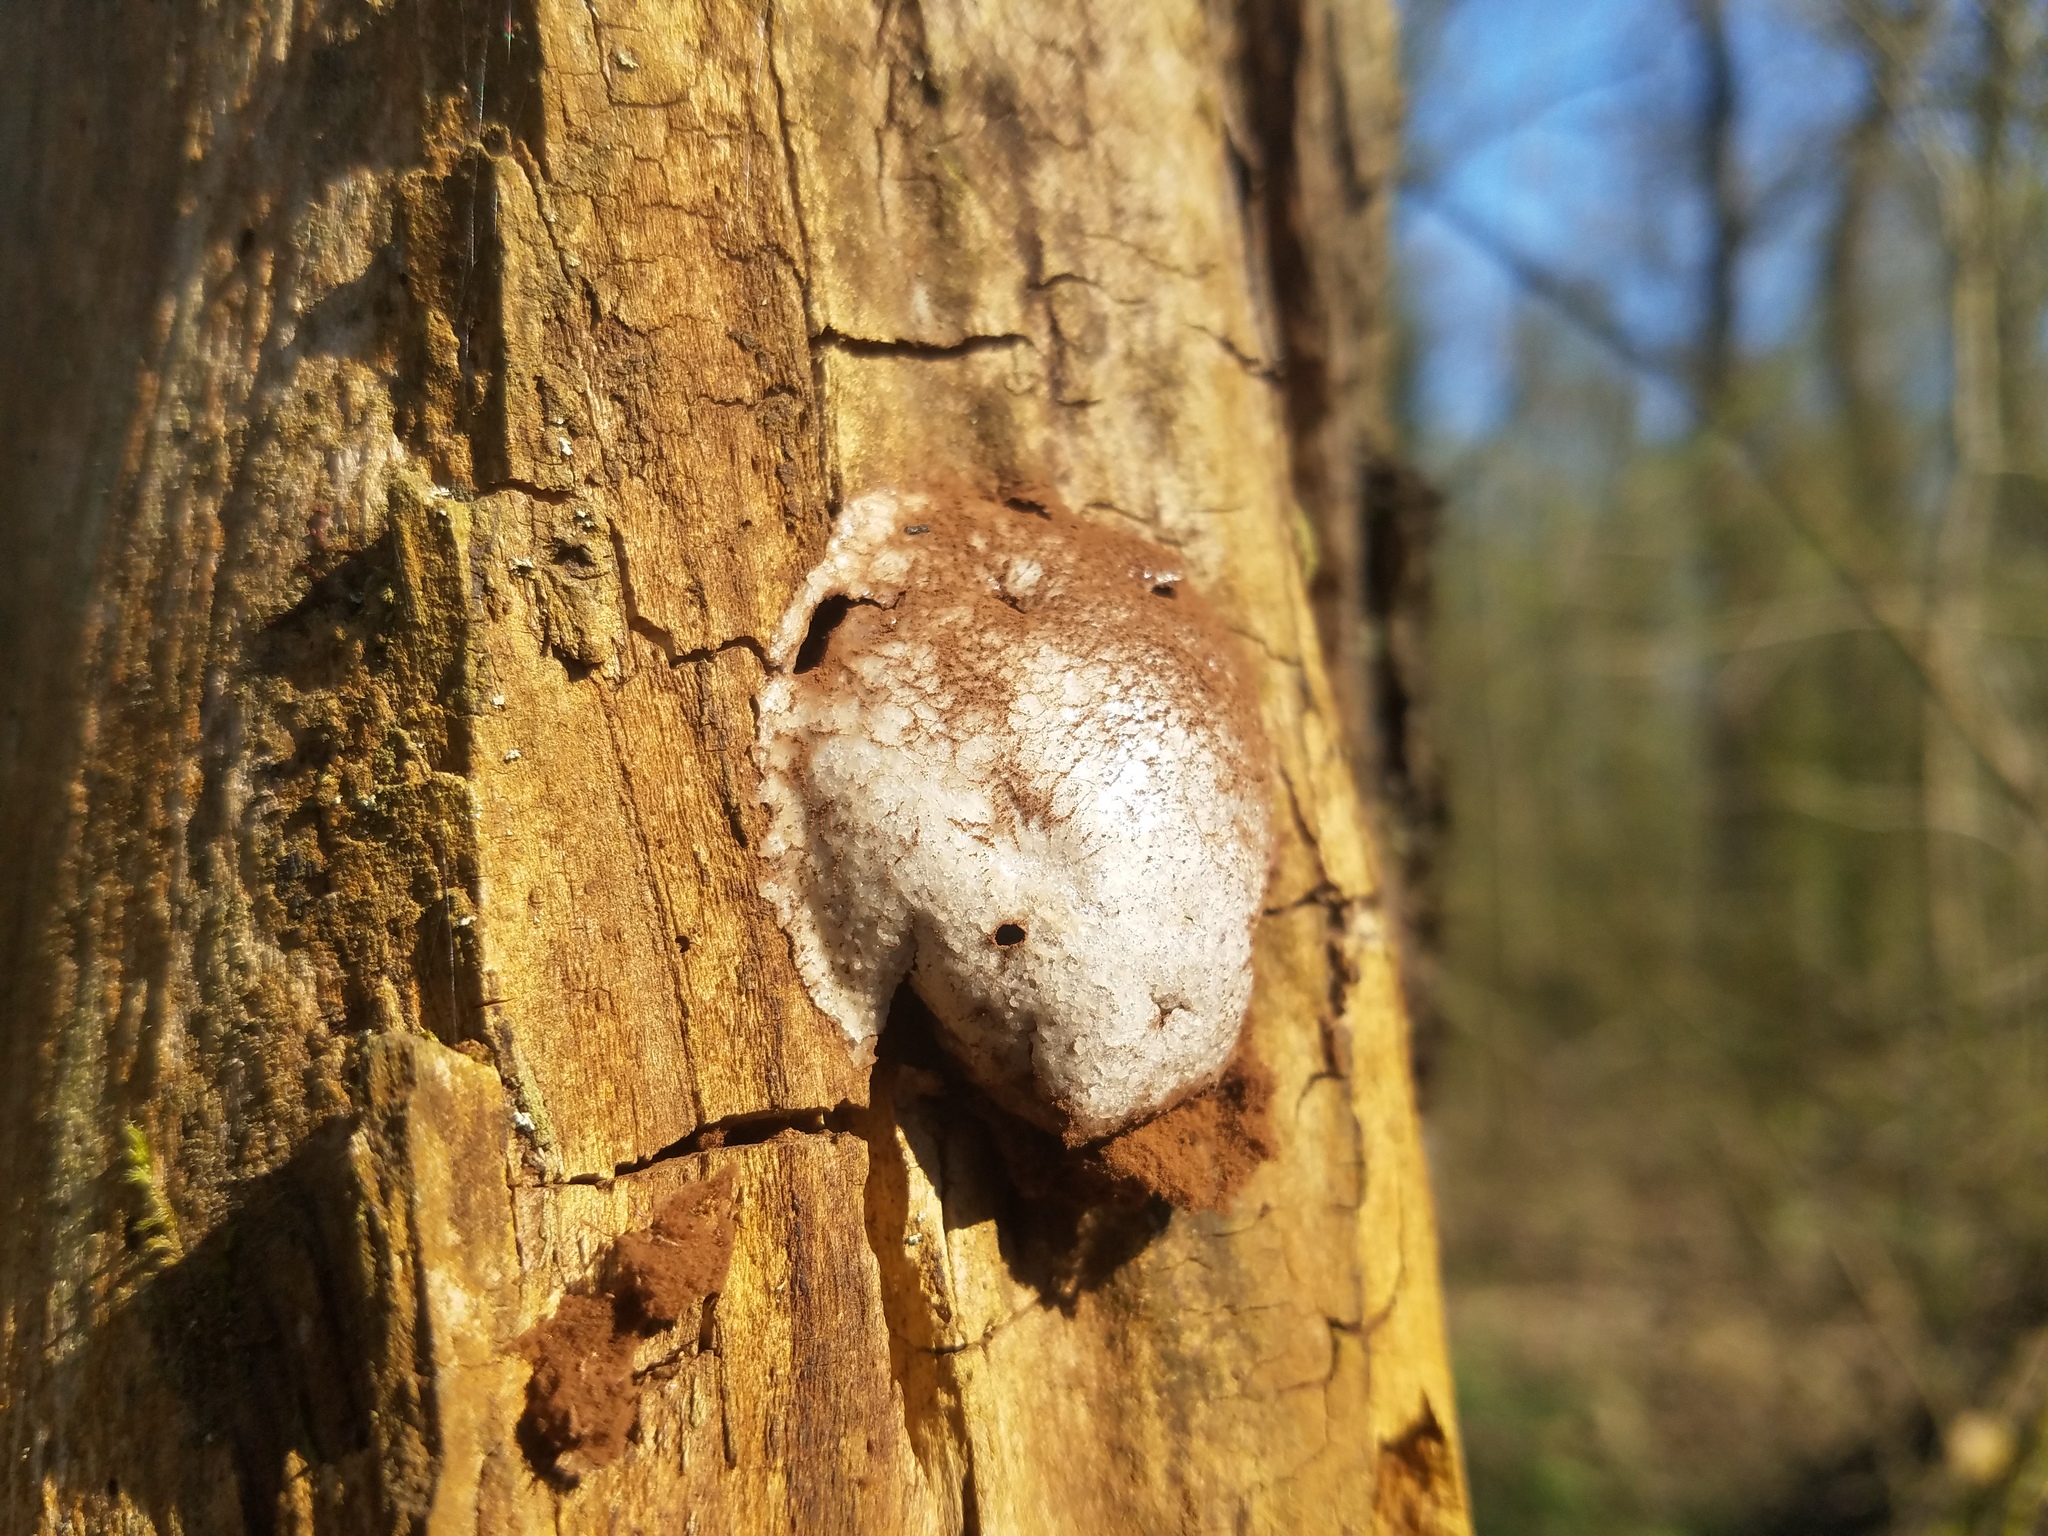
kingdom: Protozoa
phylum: Mycetozoa
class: Myxomycetes
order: Cribrariales
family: Tubiferaceae
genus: Reticularia
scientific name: Reticularia lycoperdon
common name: False puffball
